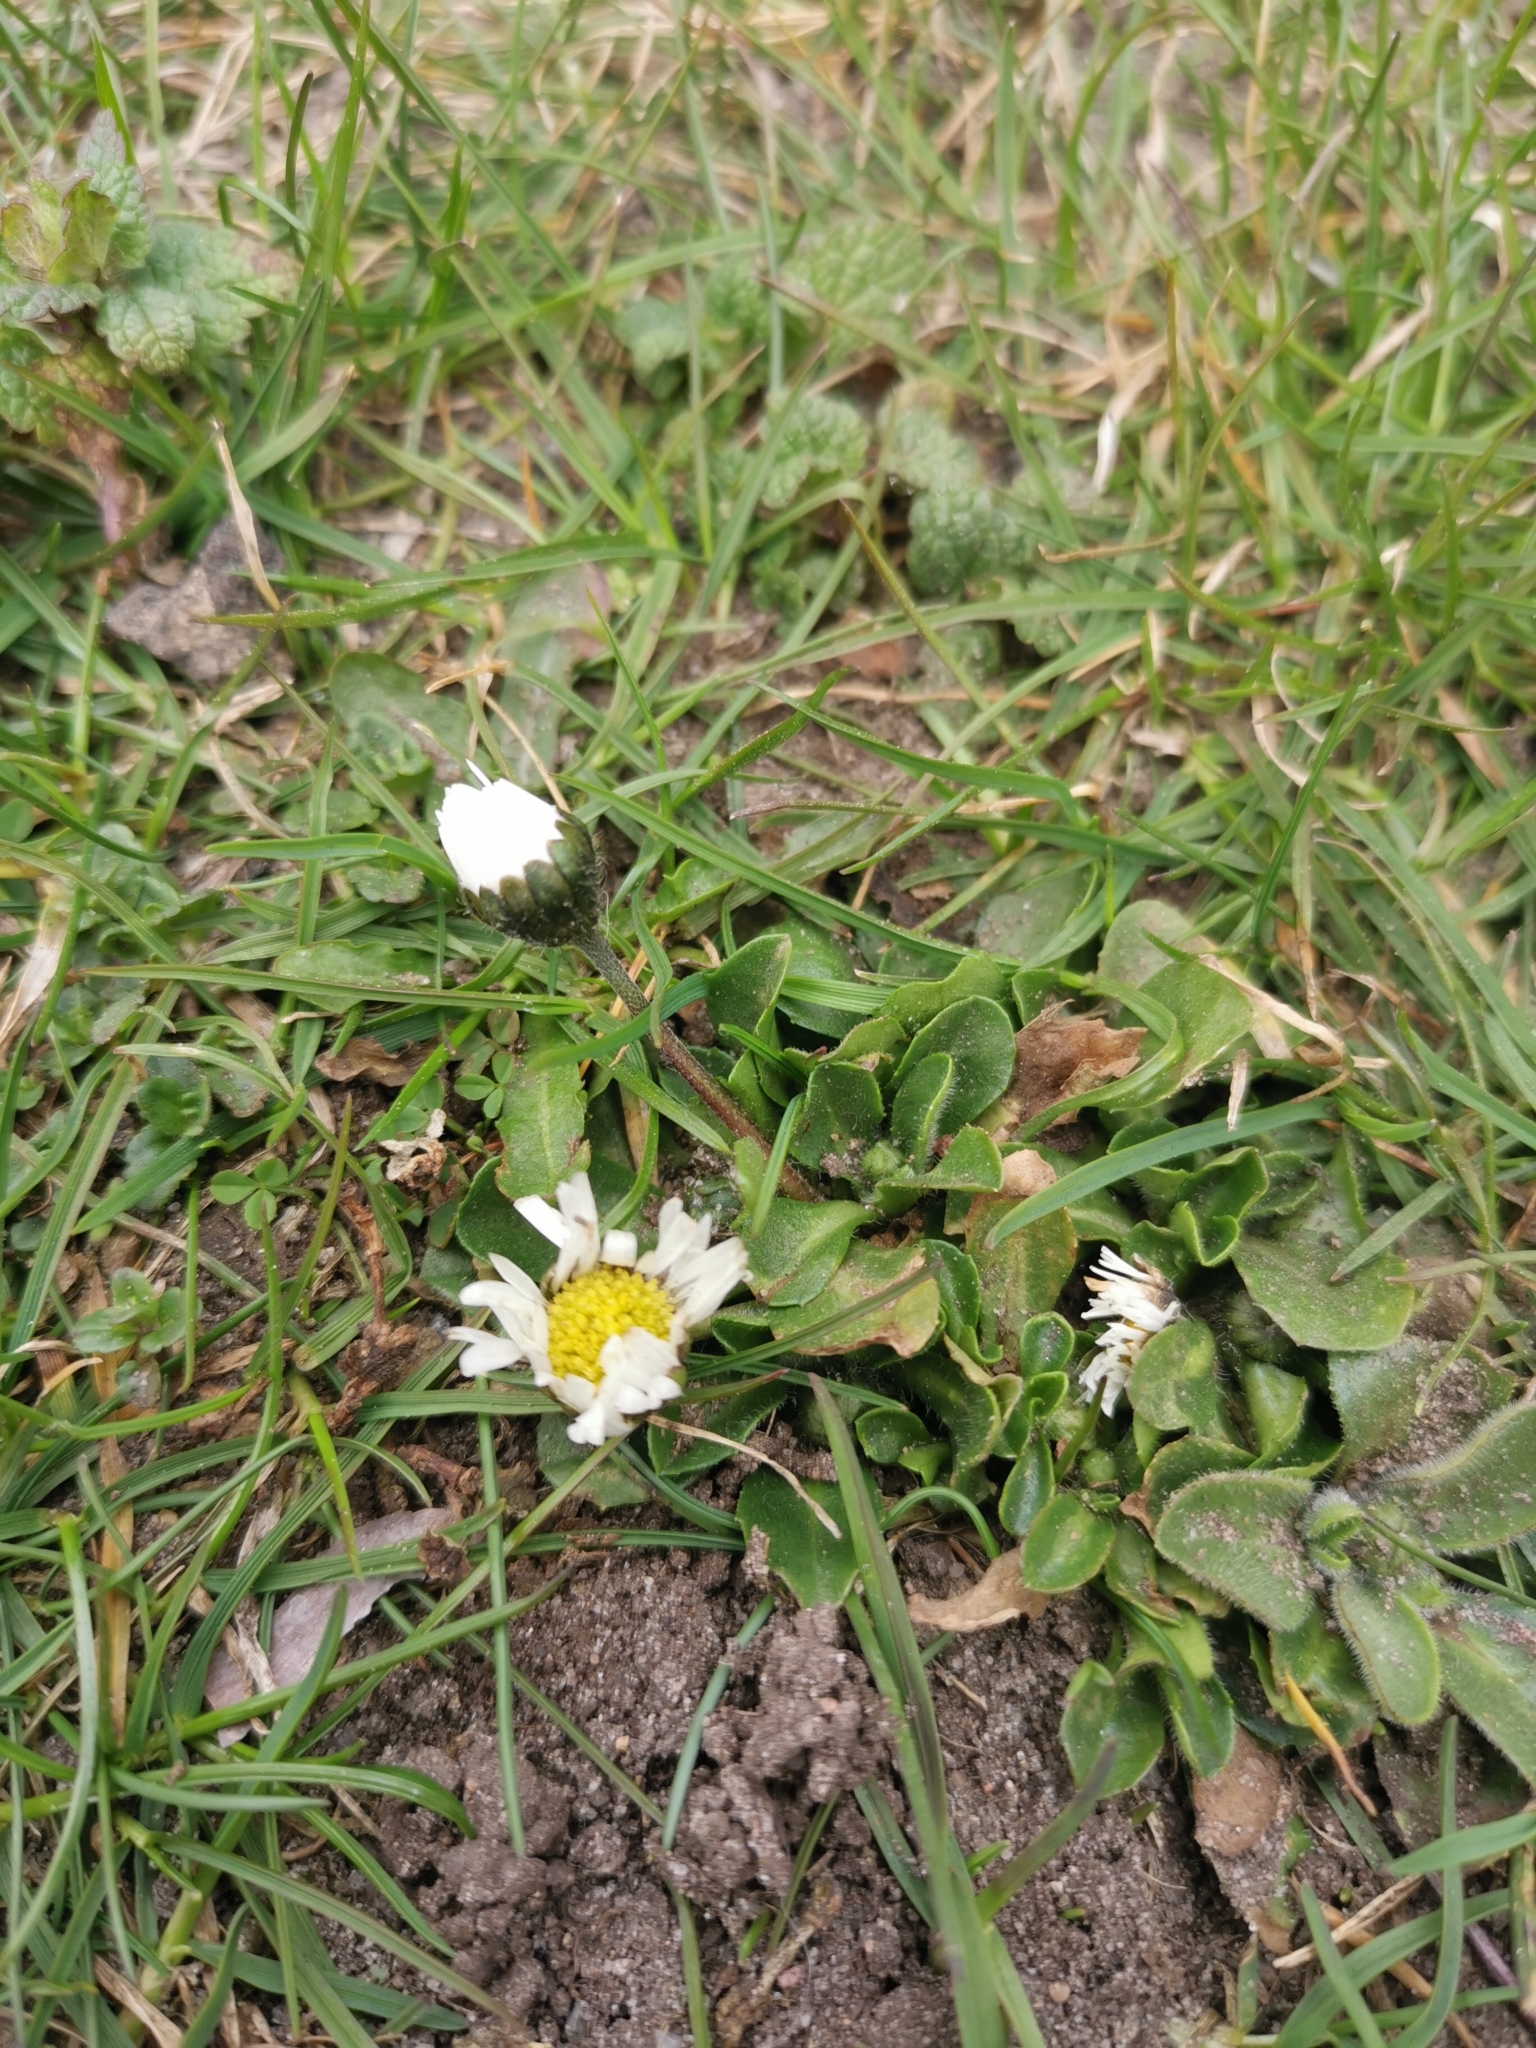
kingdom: Plantae
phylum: Tracheophyta
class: Magnoliopsida
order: Asterales
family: Asteraceae
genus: Bellis
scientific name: Bellis perennis
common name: Lawndaisy
